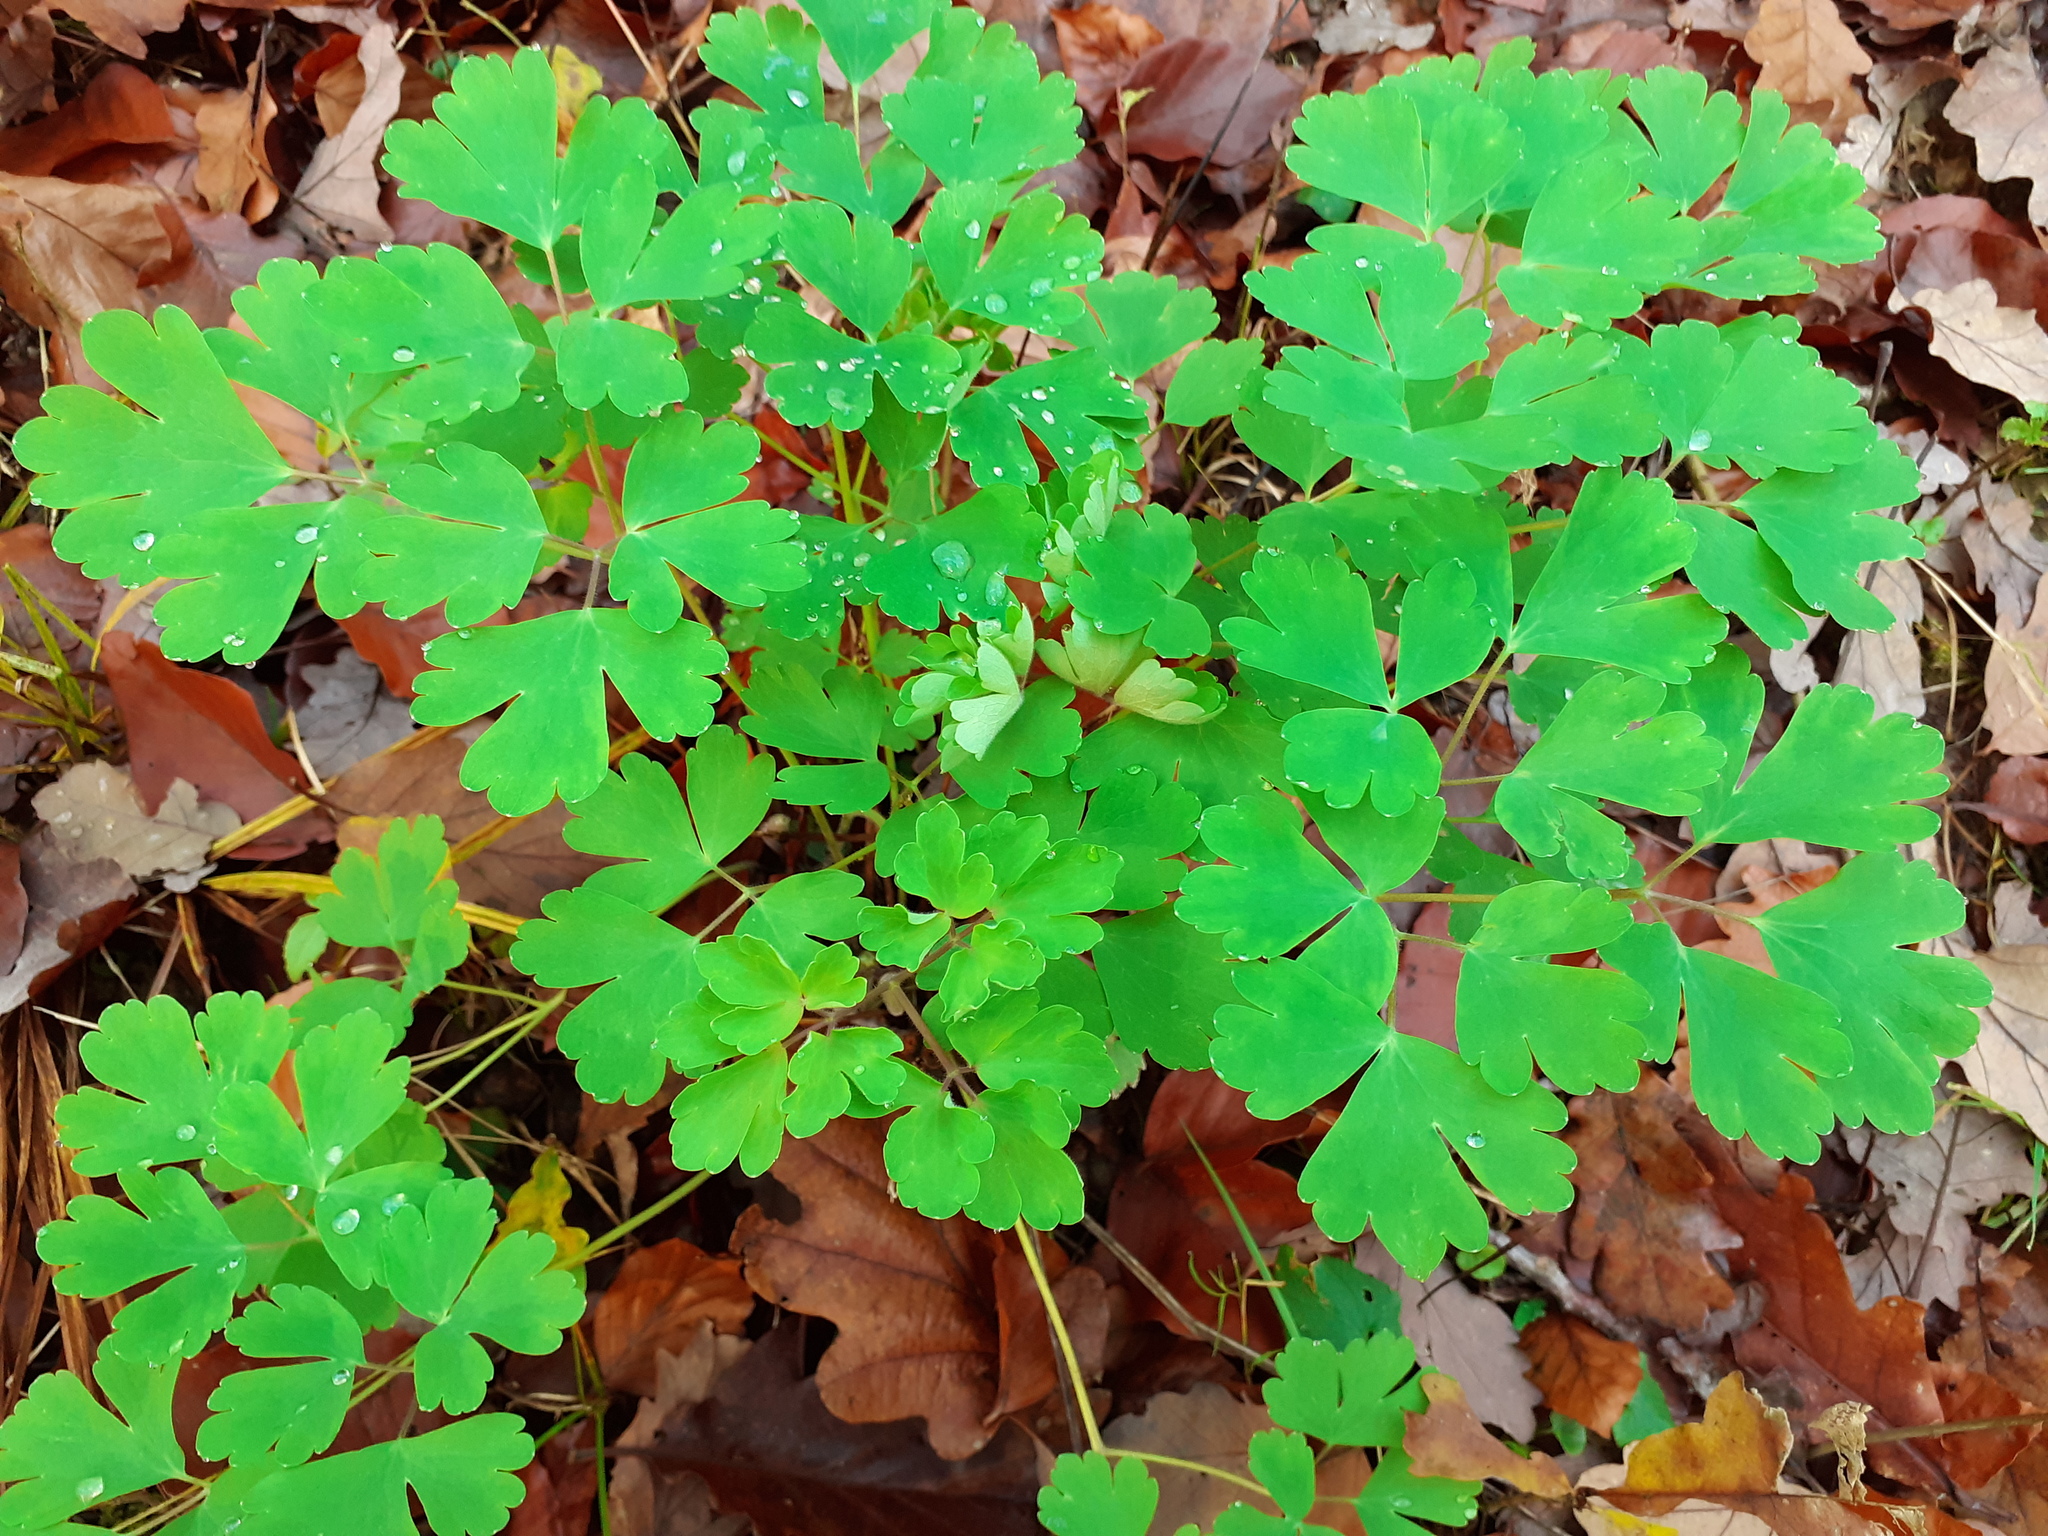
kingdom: Plantae
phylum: Tracheophyta
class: Magnoliopsida
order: Ranunculales
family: Ranunculaceae
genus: Aquilegia
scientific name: Aquilegia vulgaris
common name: Columbine
